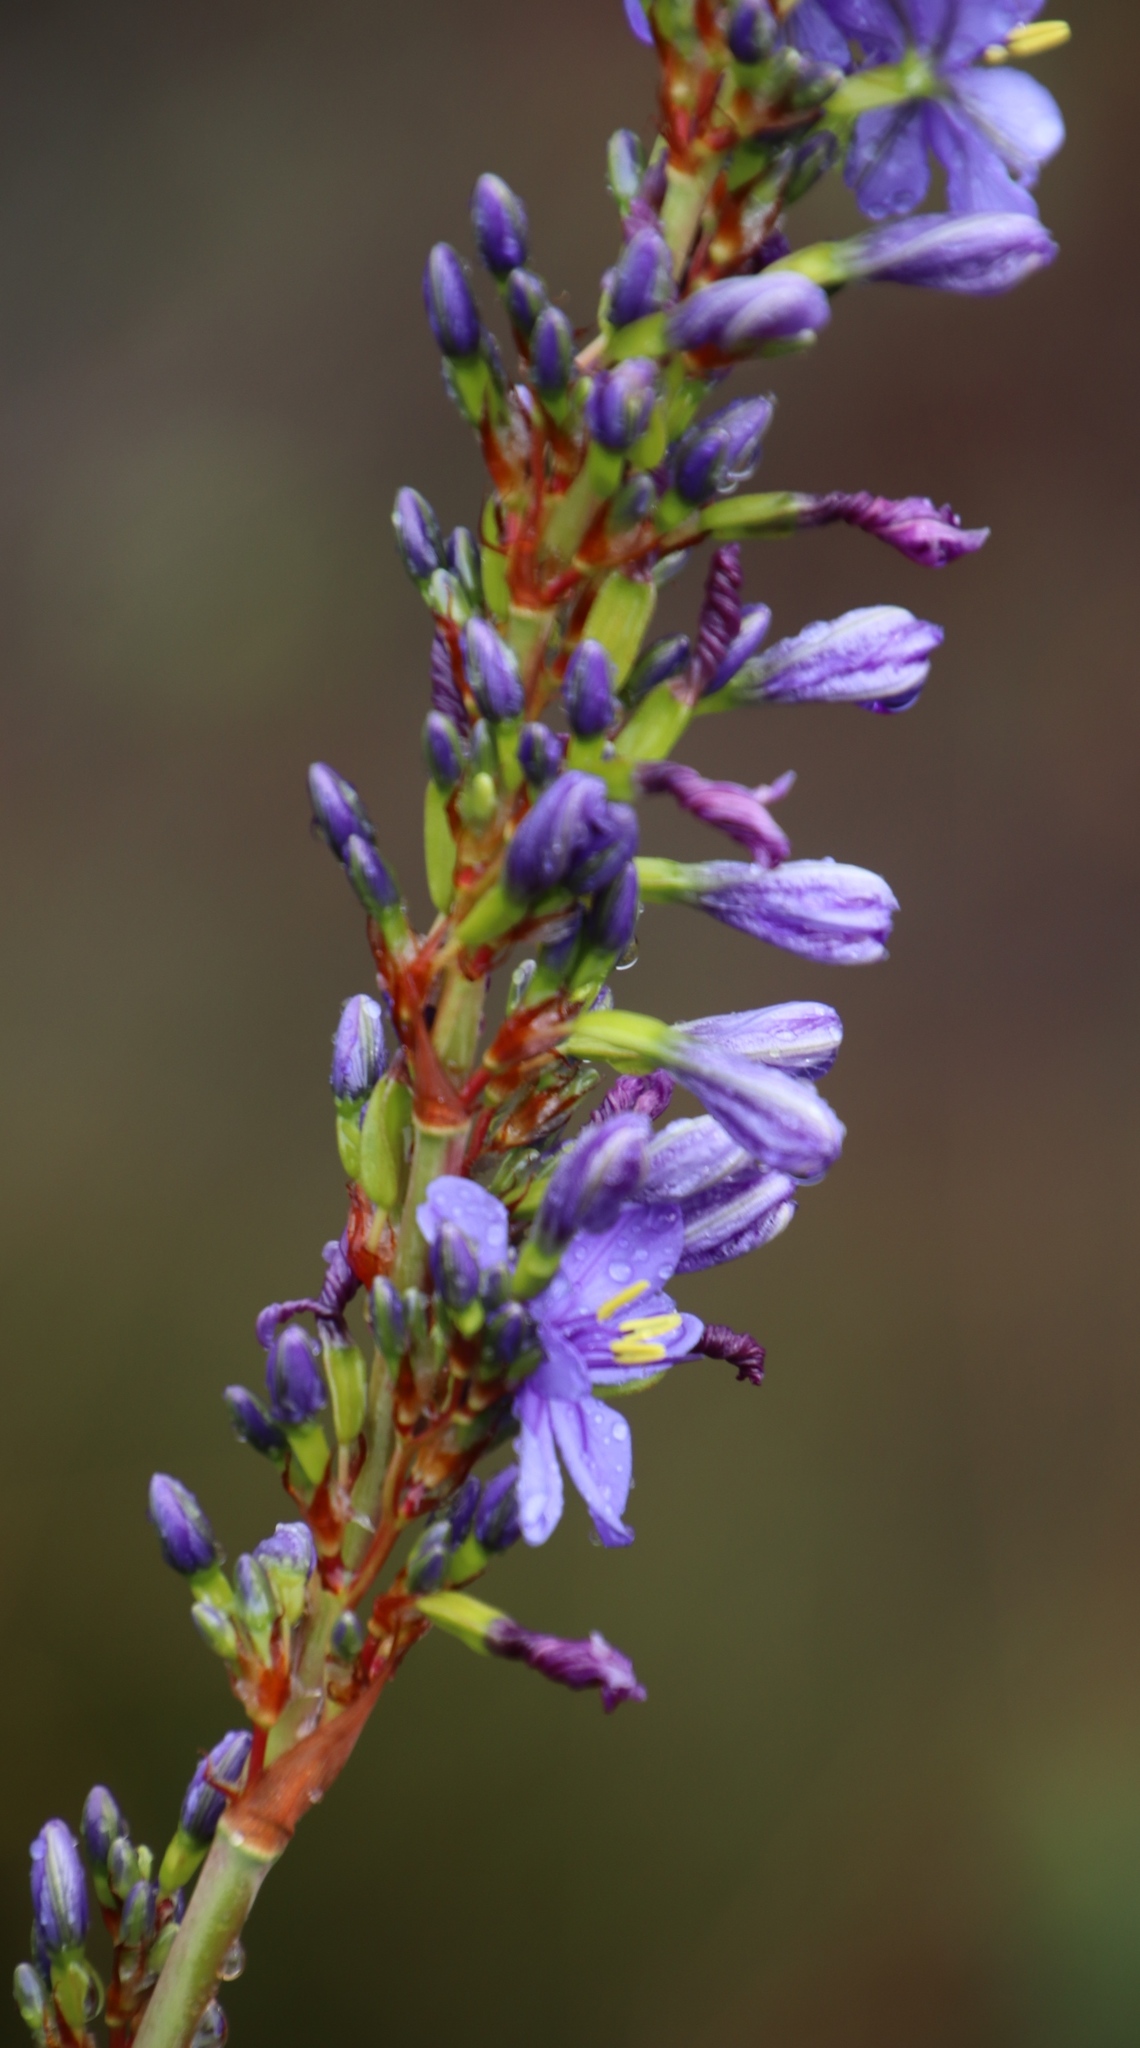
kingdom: Plantae
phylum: Tracheophyta
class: Liliopsida
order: Asparagales
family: Iridaceae
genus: Aristea
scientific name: Aristea capitata
